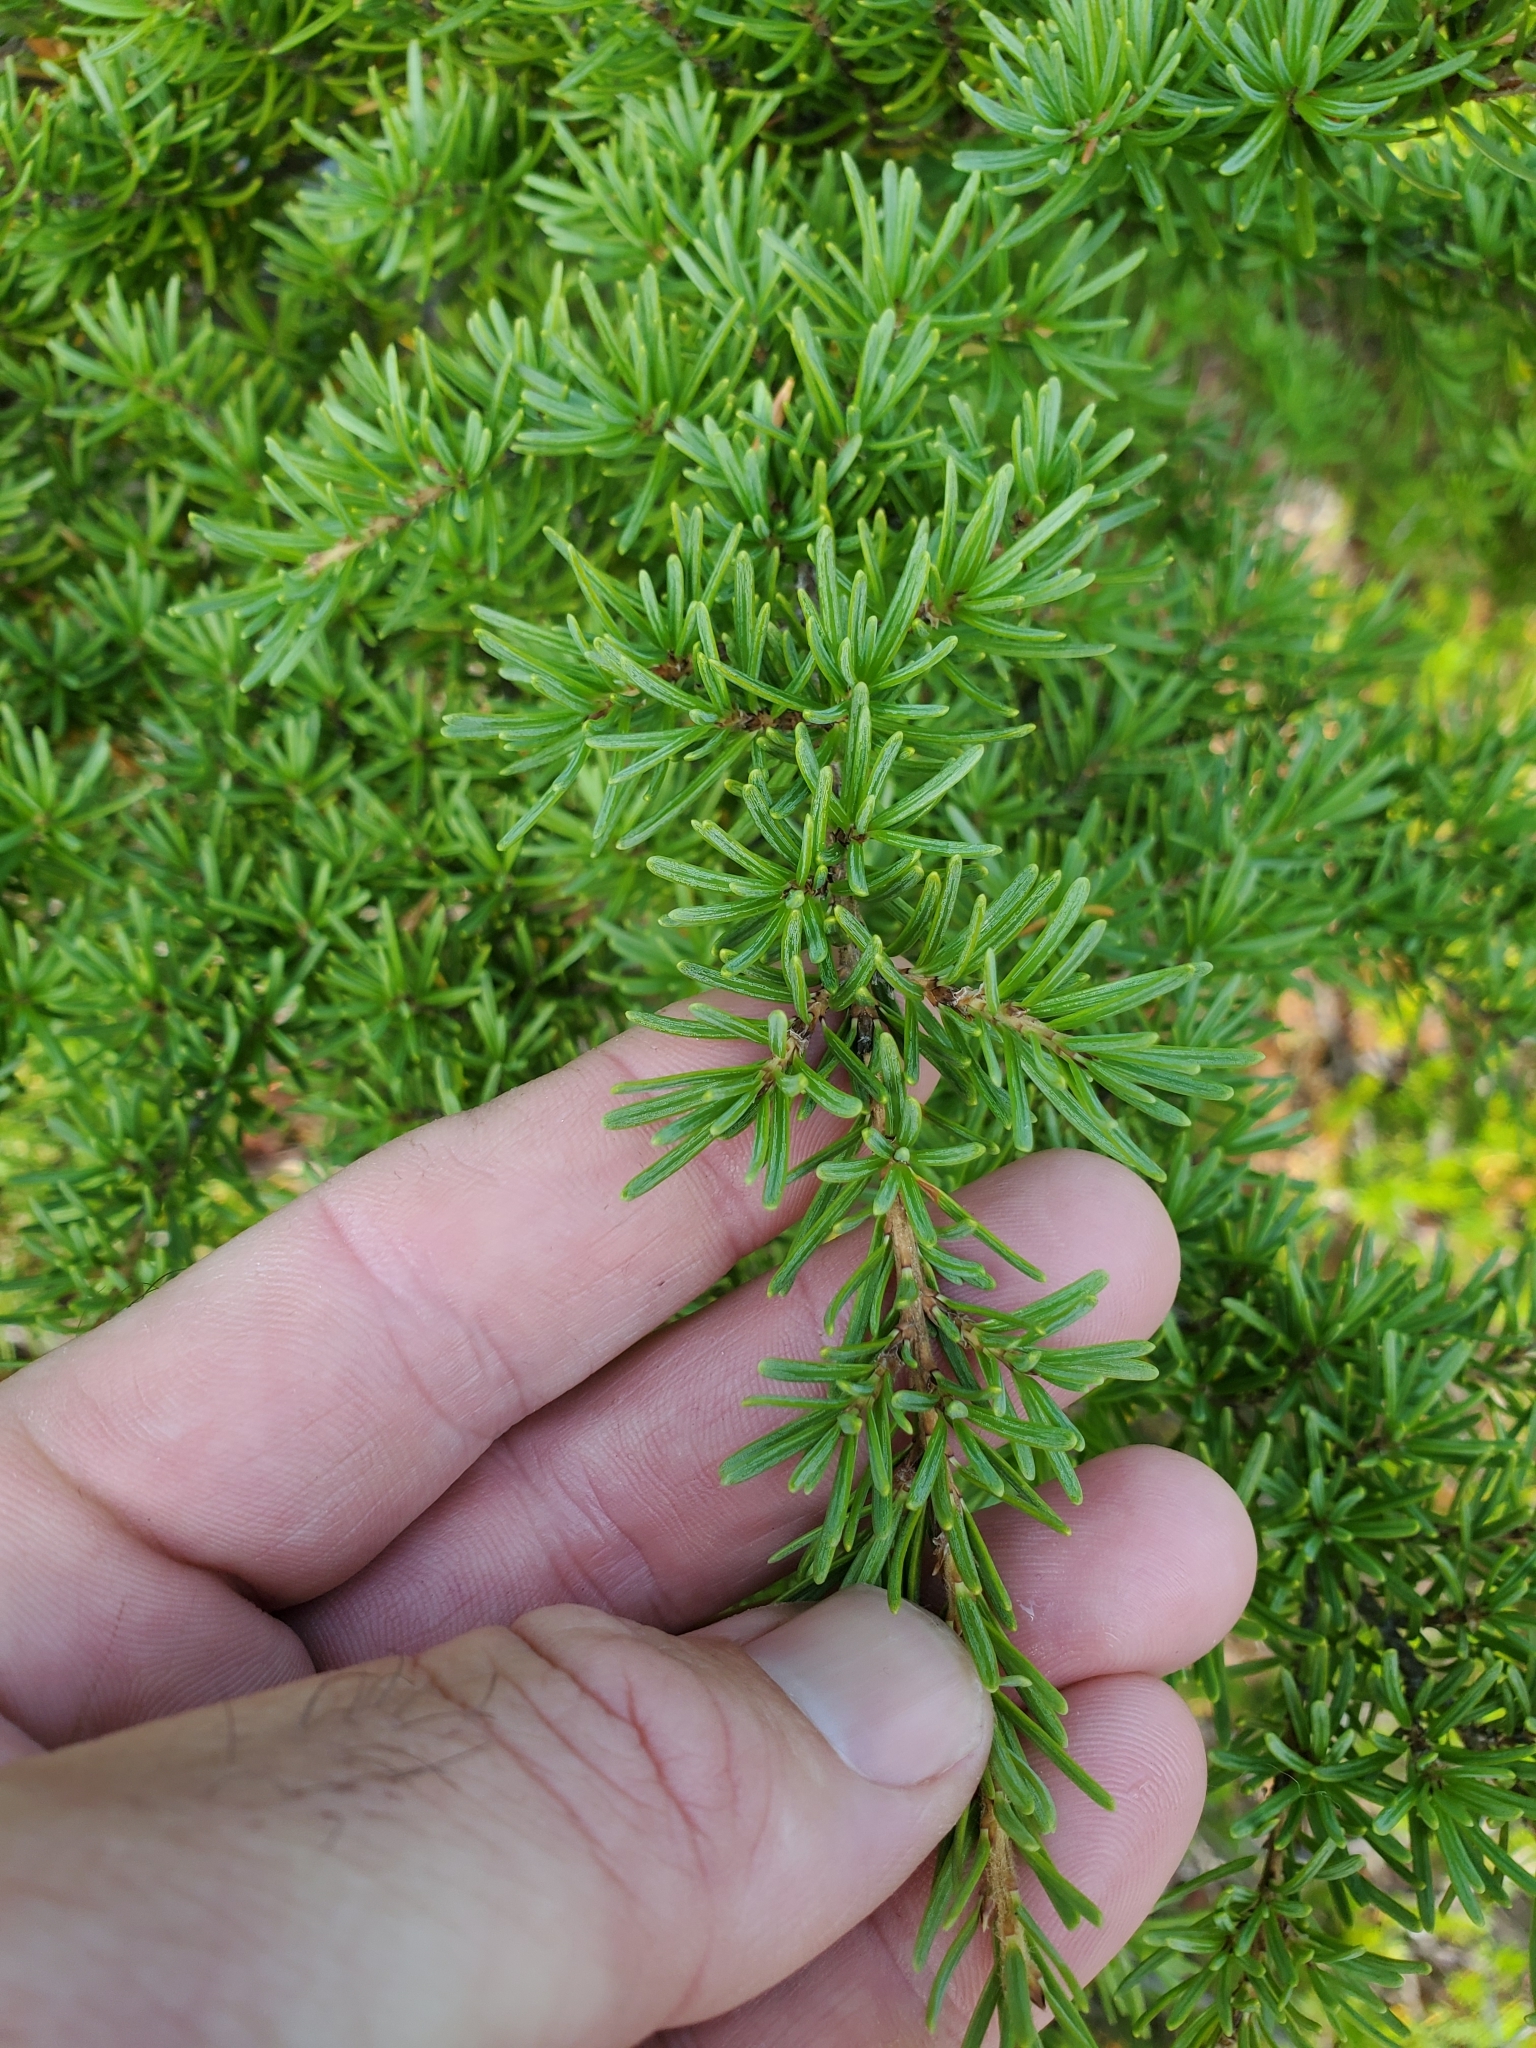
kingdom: Plantae
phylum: Tracheophyta
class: Pinopsida
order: Pinales
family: Pinaceae
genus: Tsuga
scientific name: Tsuga mertensiana
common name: Mountain hemlock
